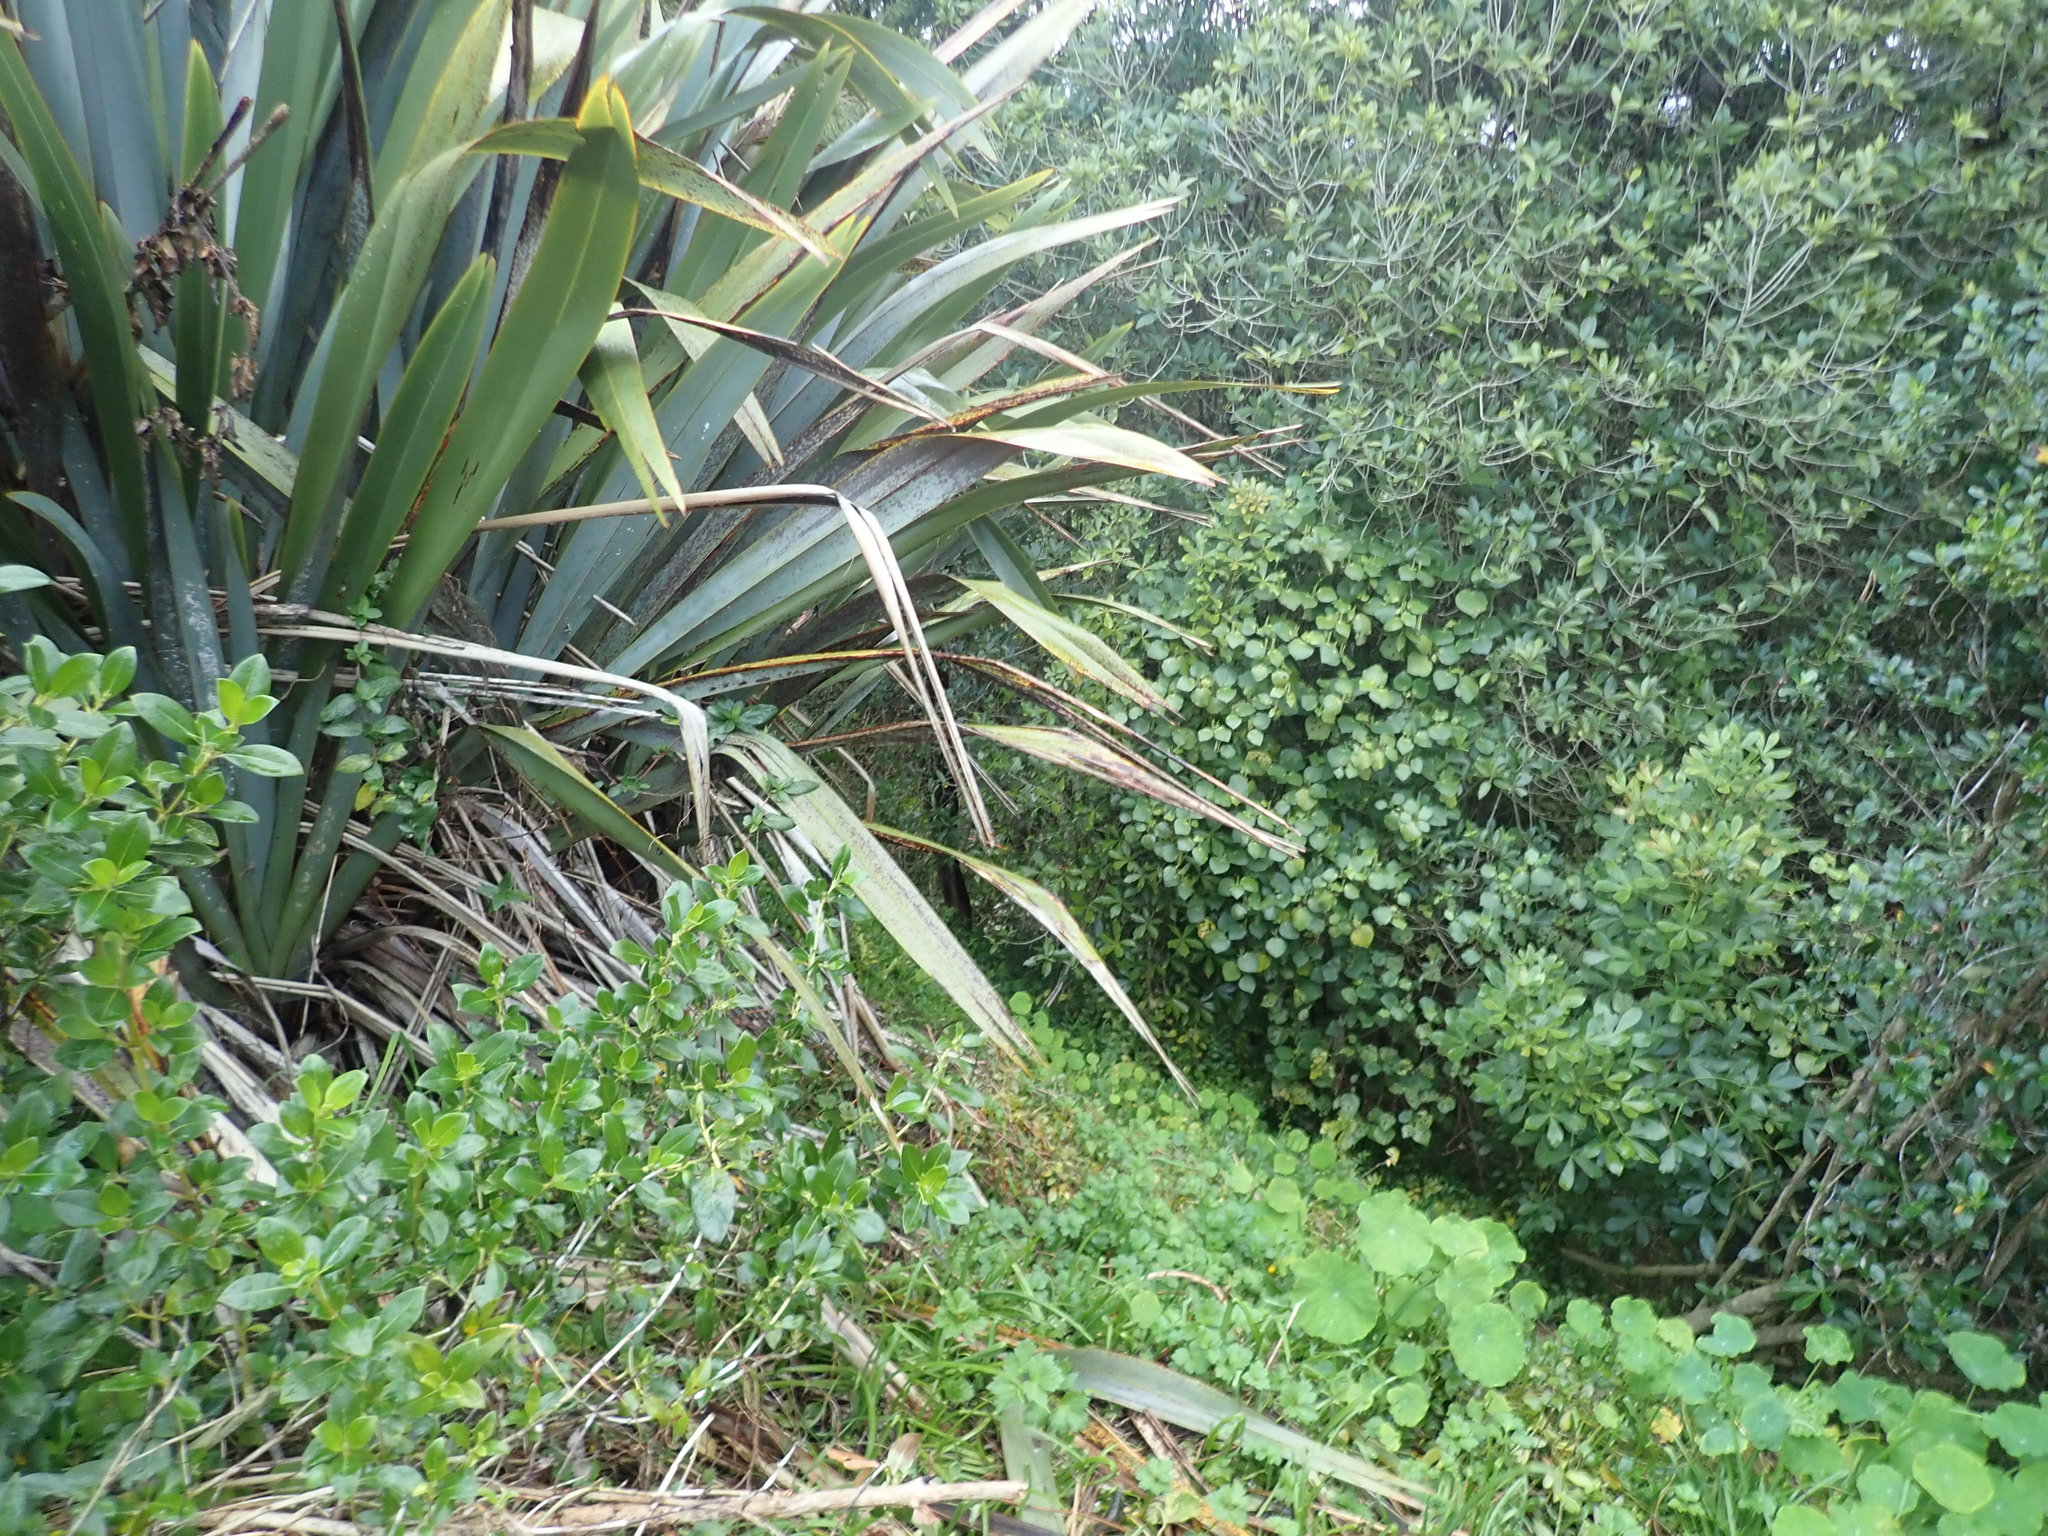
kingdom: Plantae
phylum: Tracheophyta
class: Magnoliopsida
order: Gentianales
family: Rubiaceae
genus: Coprosma
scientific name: Coprosma robusta
